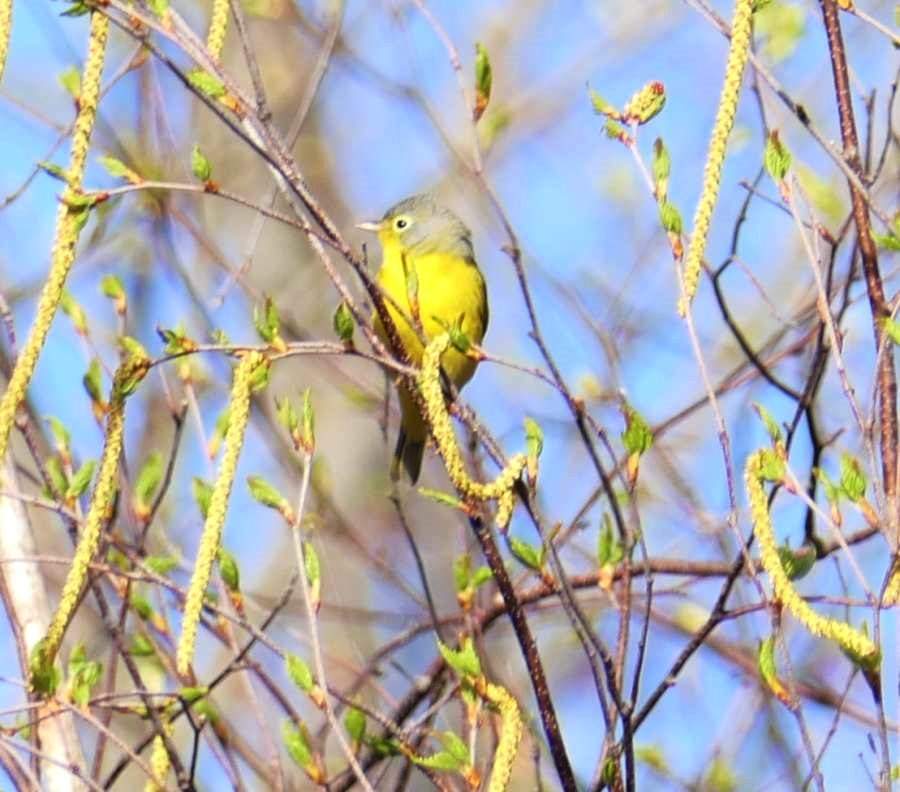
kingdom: Animalia
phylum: Chordata
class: Aves
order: Passeriformes
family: Parulidae
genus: Leiothlypis
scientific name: Leiothlypis ruficapilla
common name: Nashville warbler
